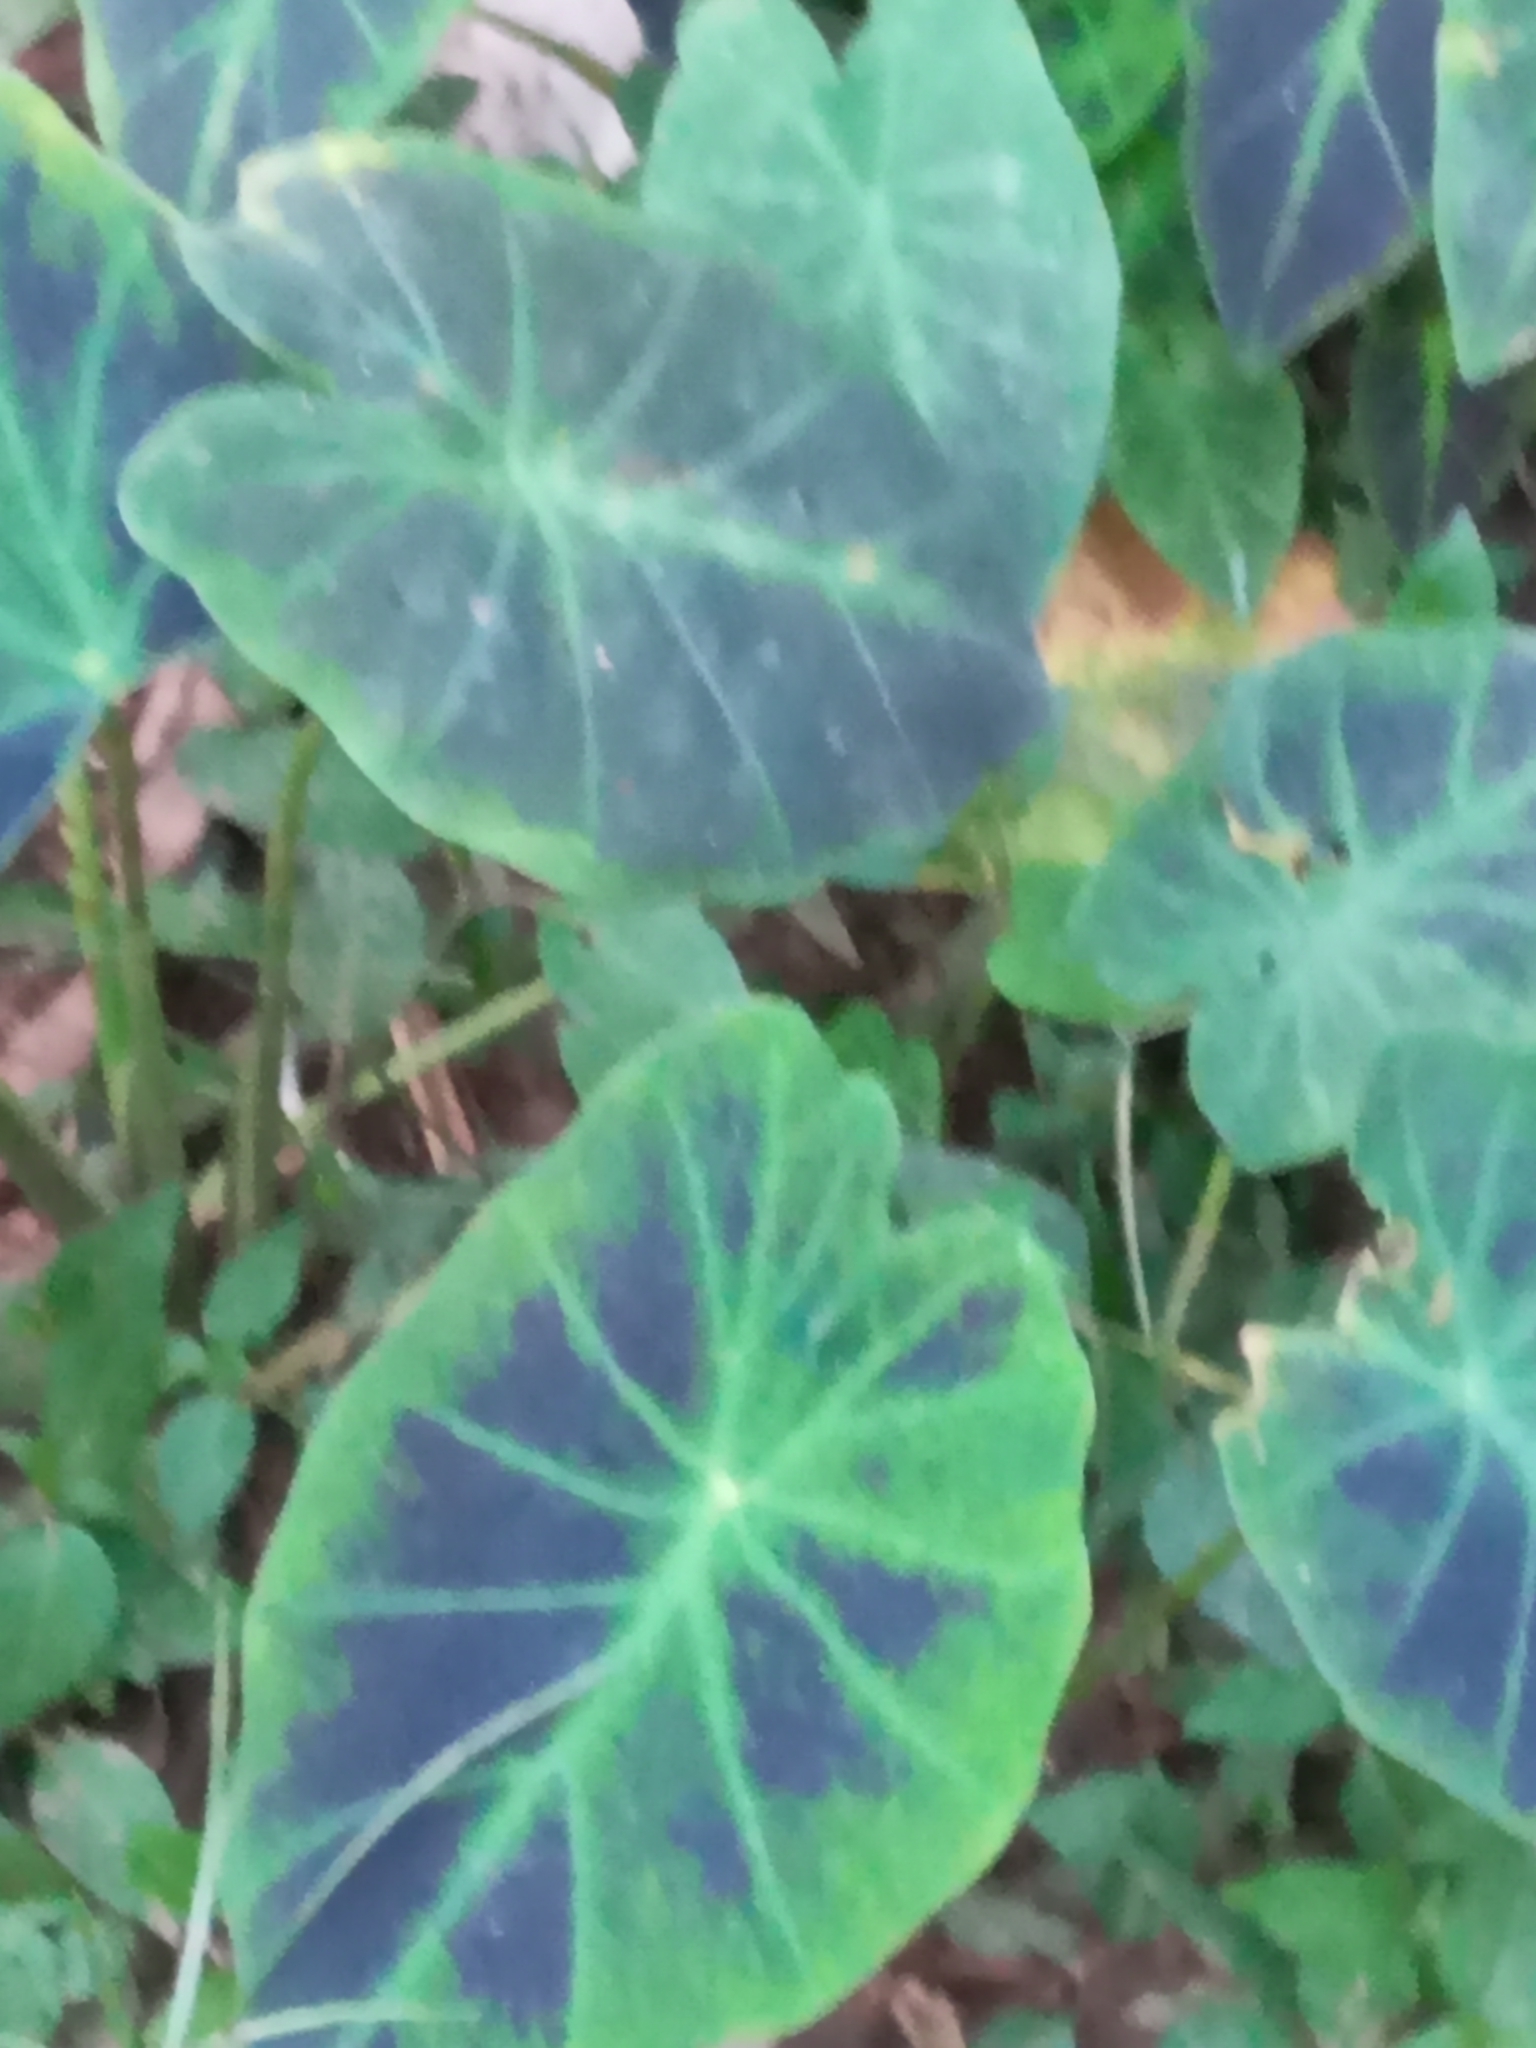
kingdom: Plantae
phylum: Tracheophyta
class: Liliopsida
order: Alismatales
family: Araceae
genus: Caladium
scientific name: Caladium bicolor
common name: Artist's pallet
